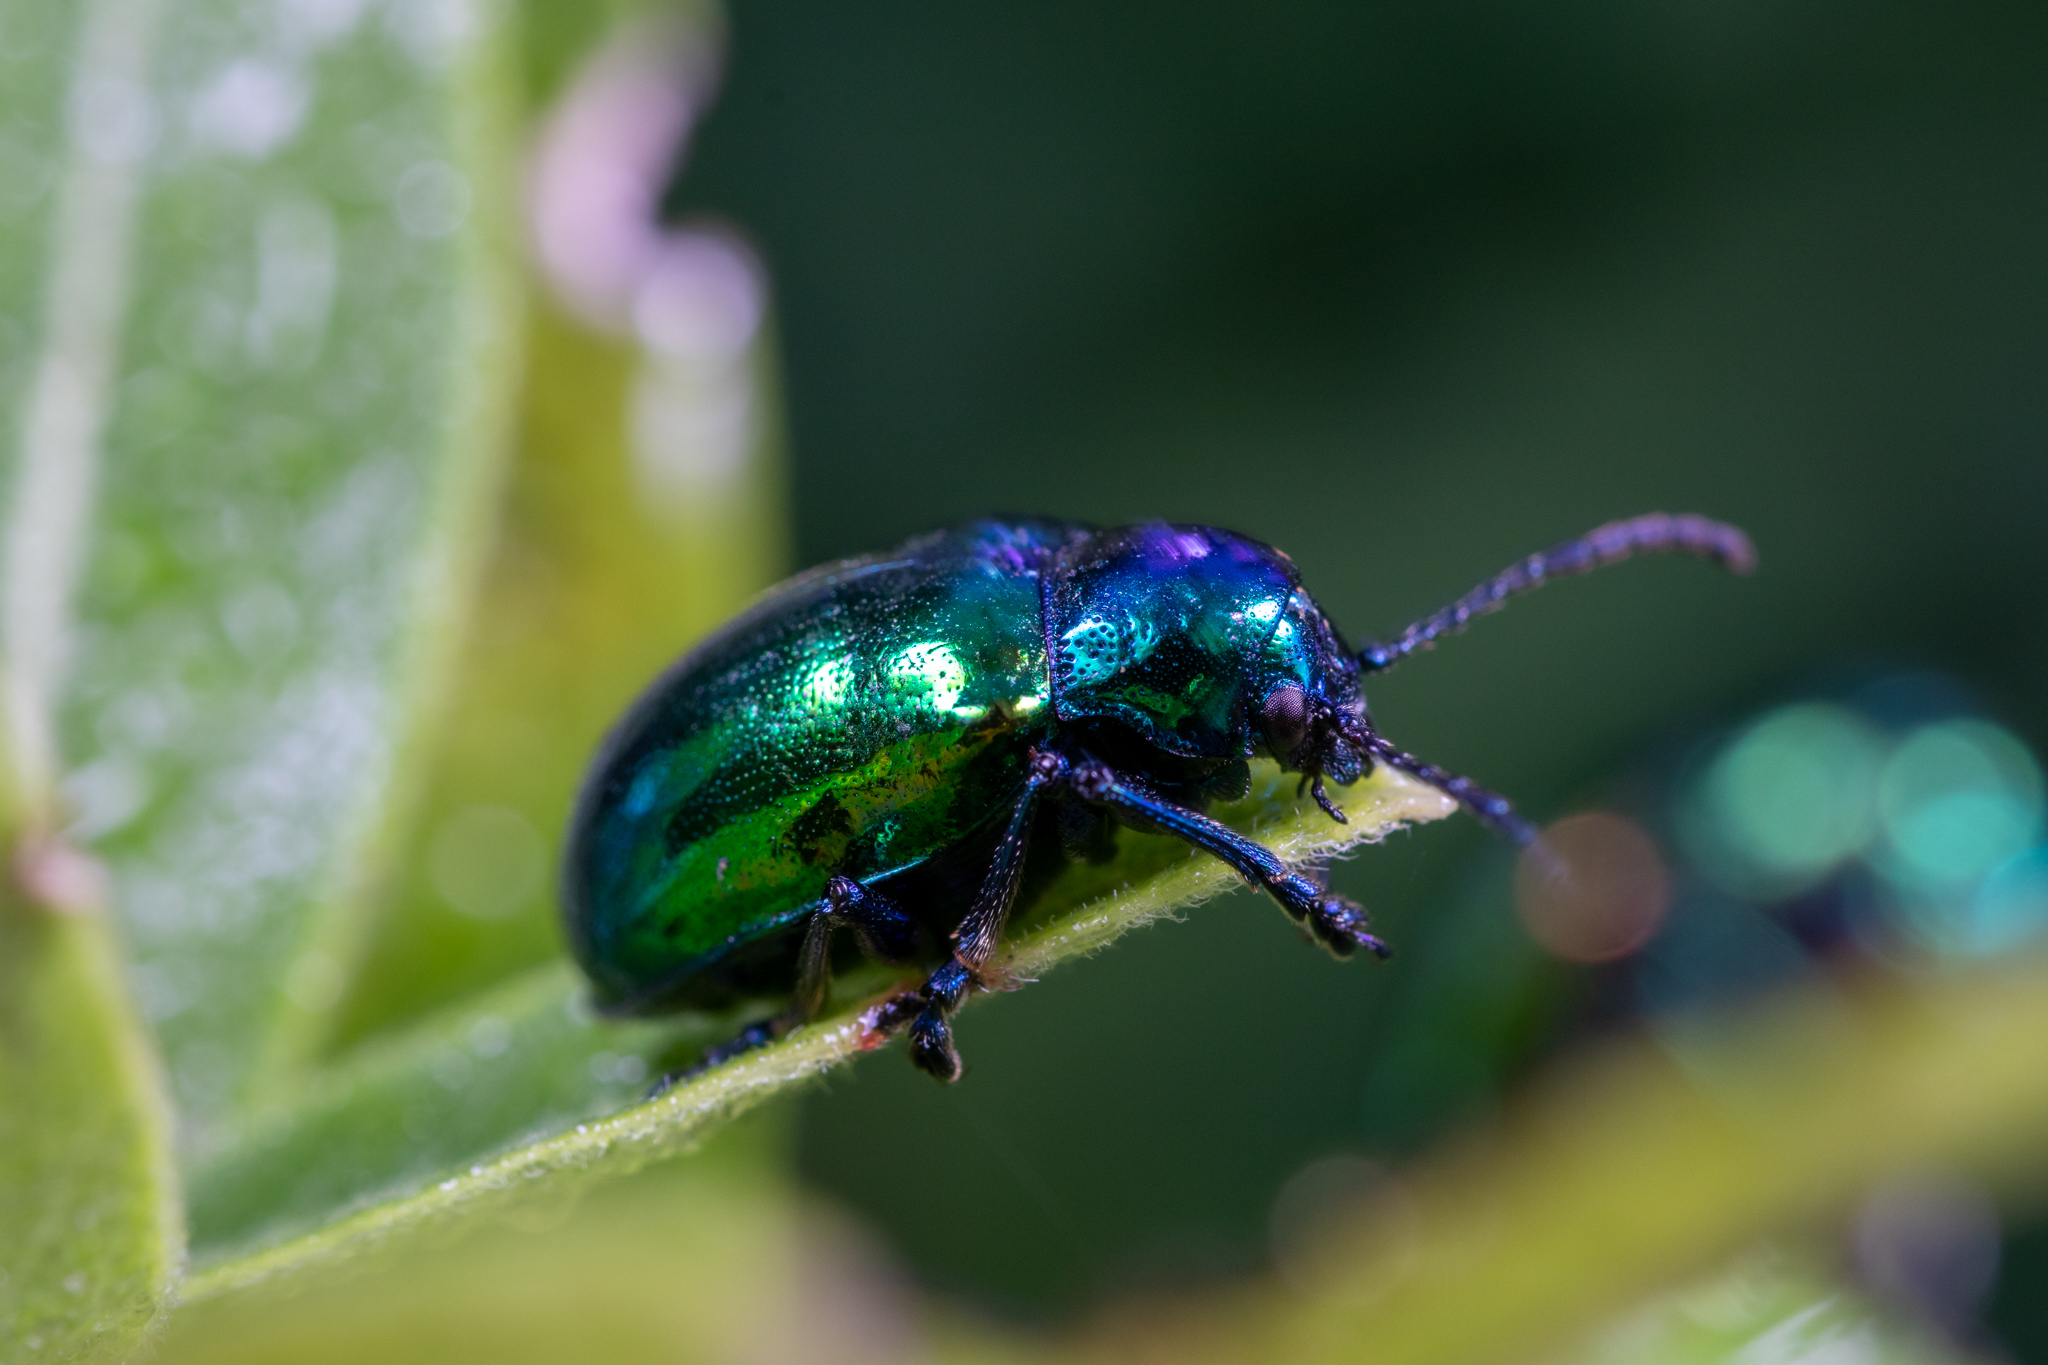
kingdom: Animalia
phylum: Arthropoda
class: Insecta
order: Coleoptera
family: Chrysomelidae
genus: Chrysochus
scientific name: Chrysochus auratus
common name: Dogbane leaf beetle
